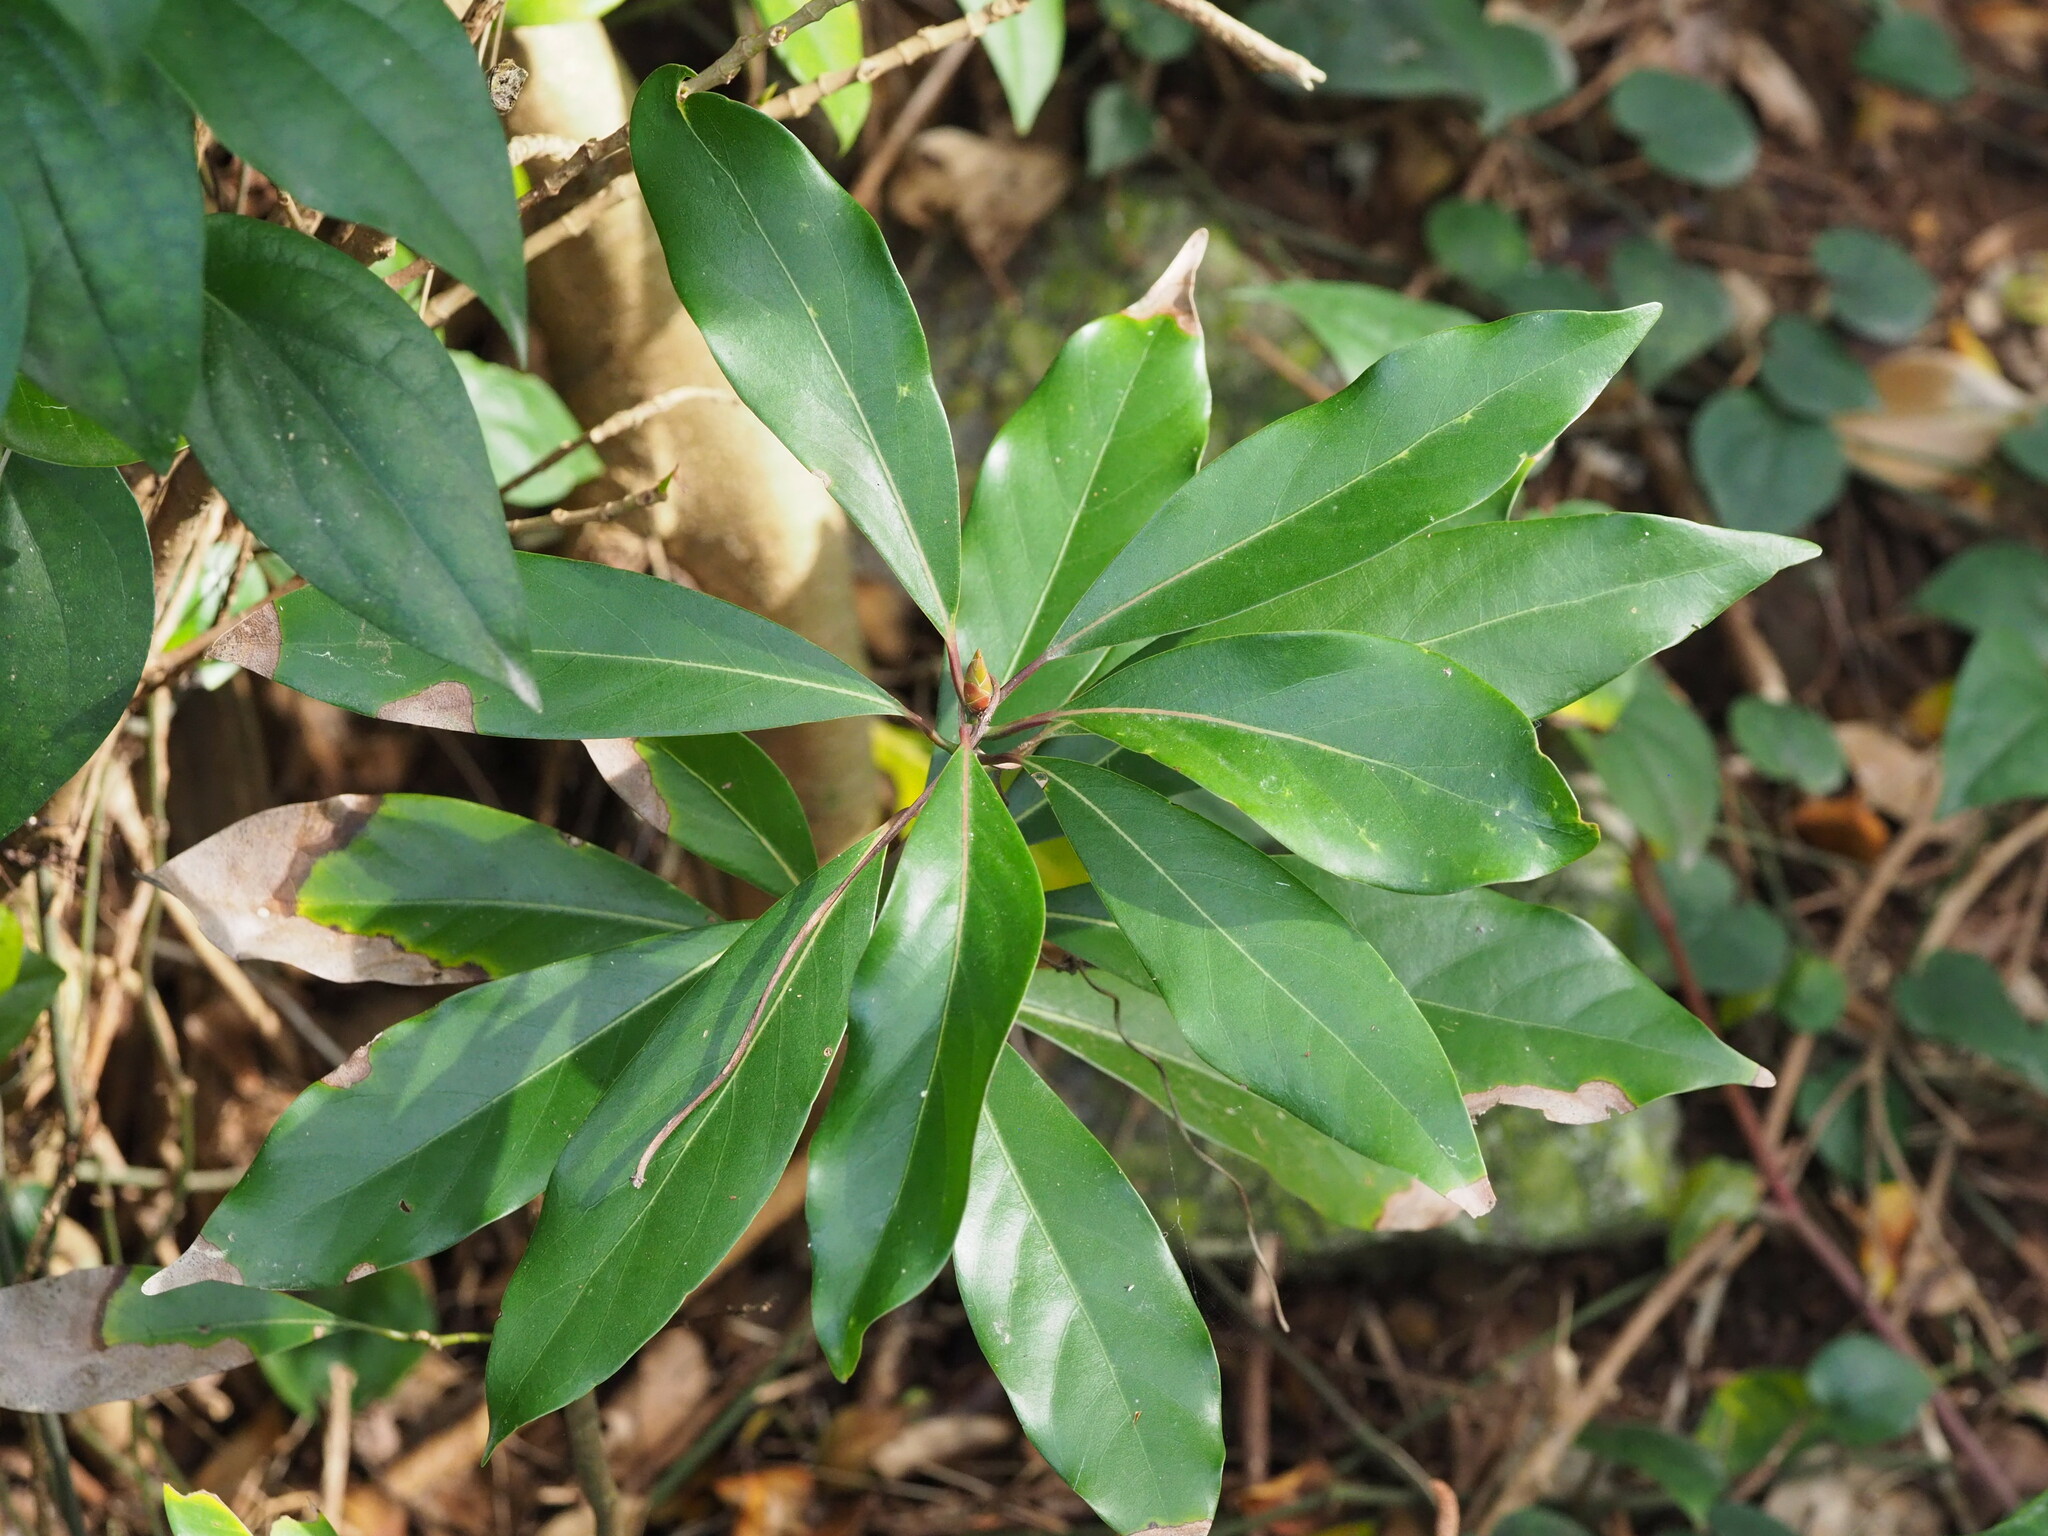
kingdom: Plantae
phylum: Tracheophyta
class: Magnoliopsida
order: Laurales
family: Lauraceae
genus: Machilus
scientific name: Machilus thunbergii
